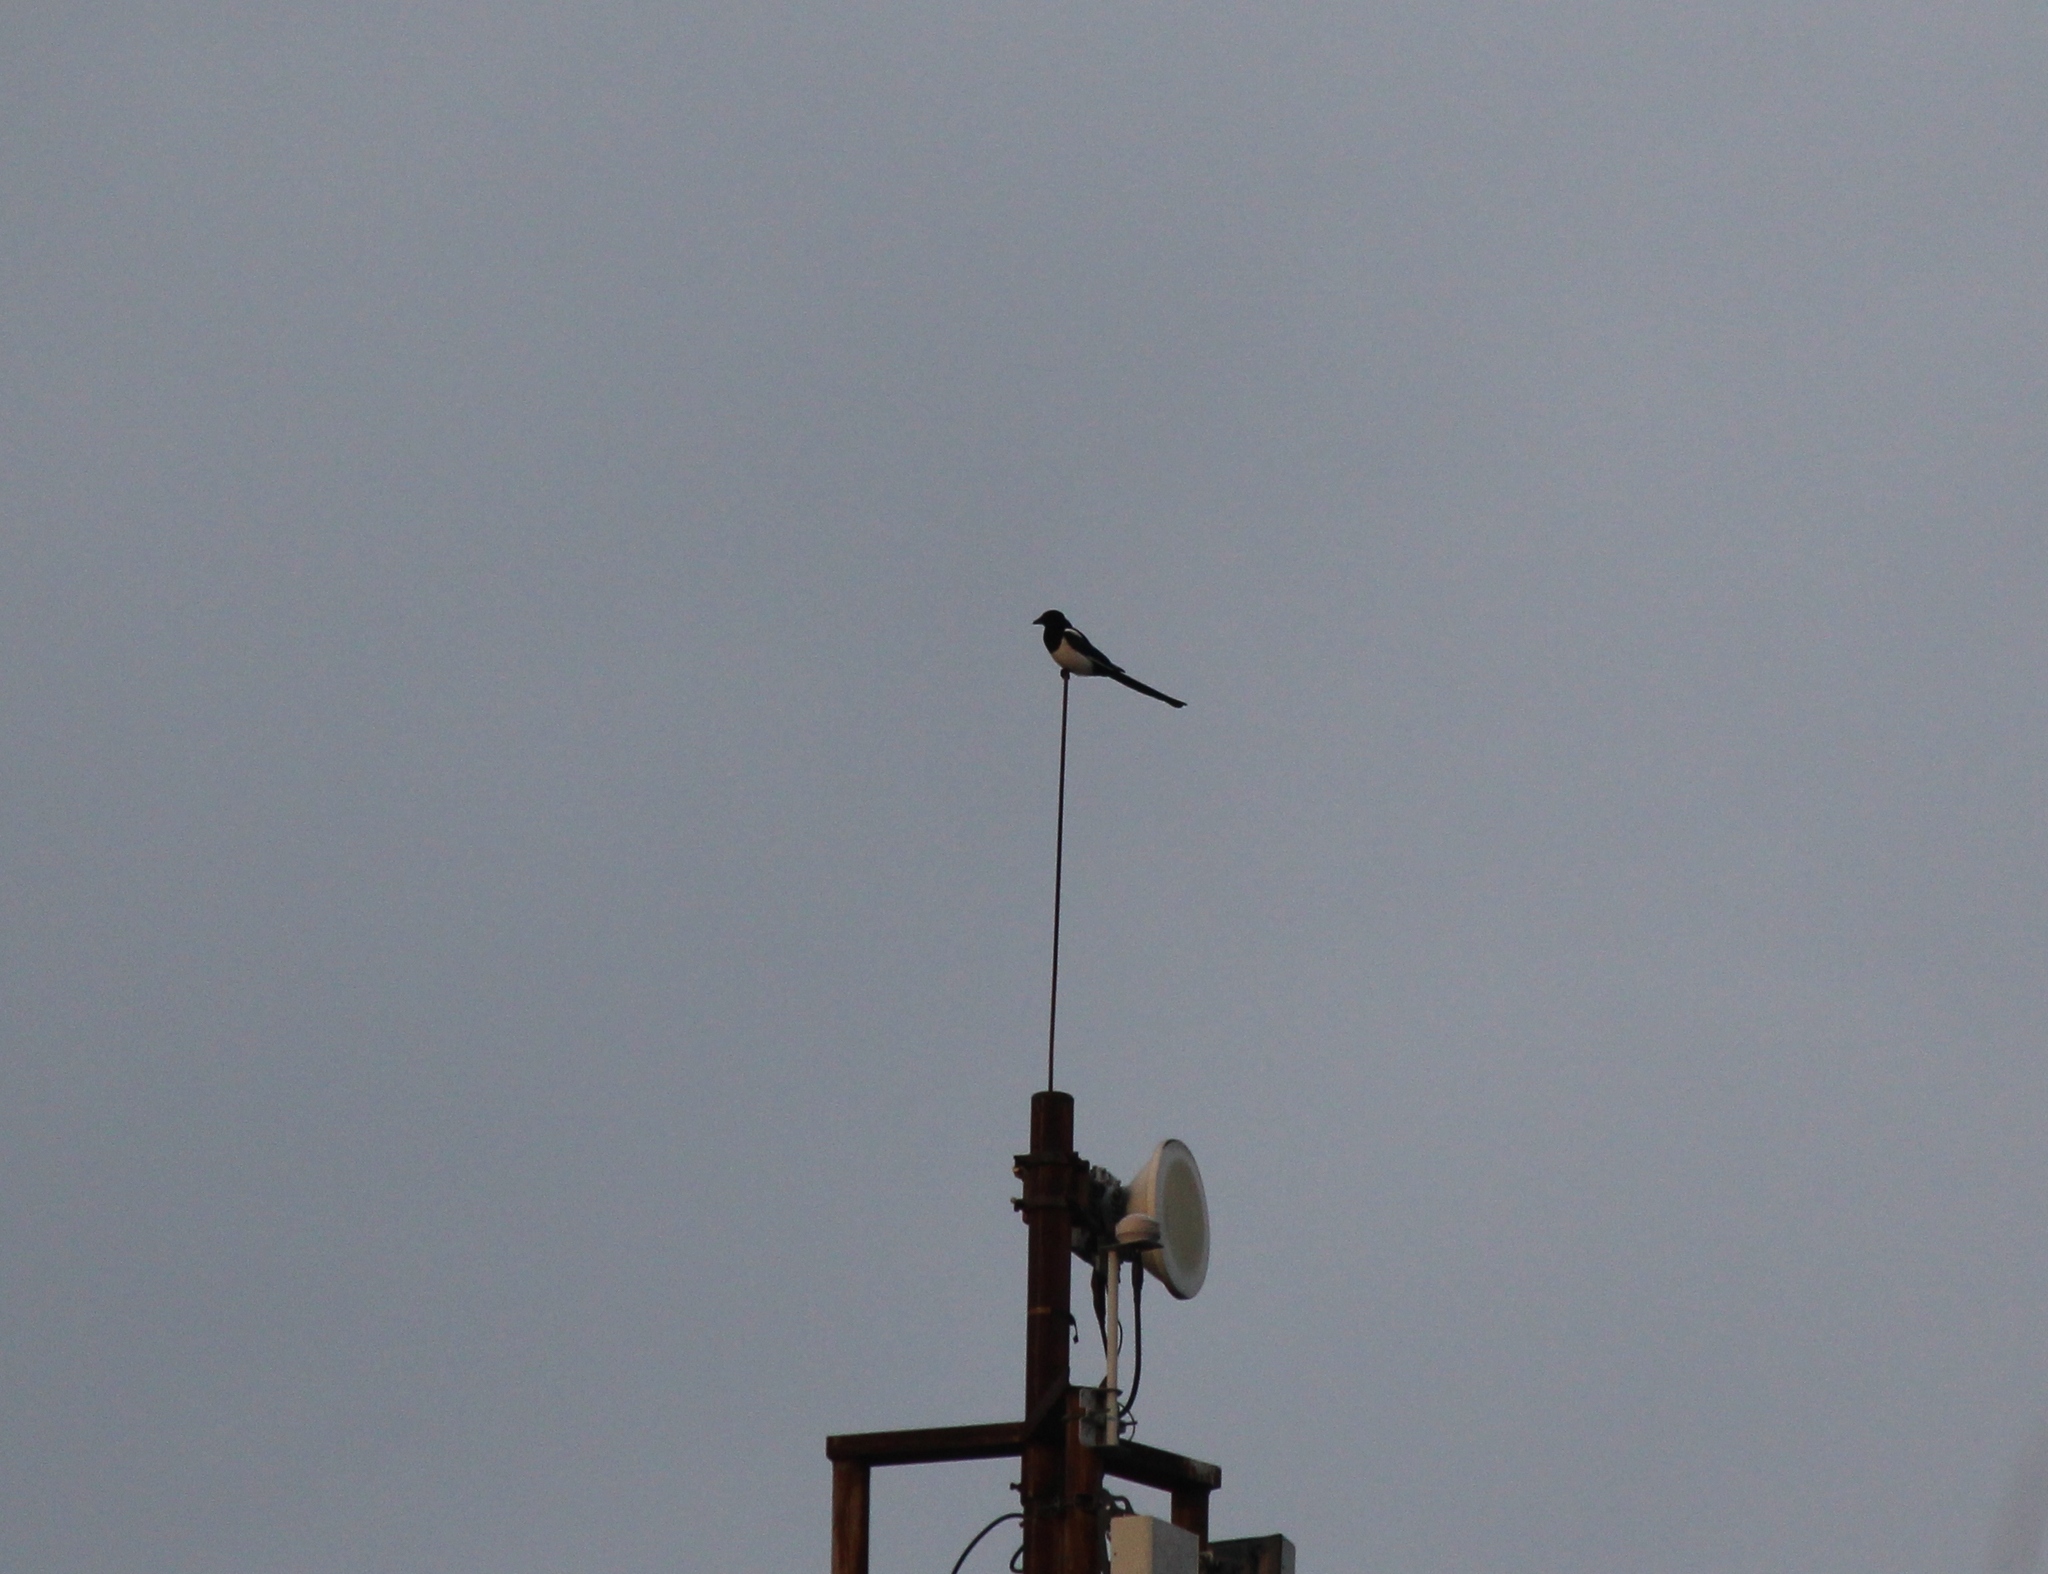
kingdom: Animalia
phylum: Chordata
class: Aves
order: Passeriformes
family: Corvidae
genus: Pica
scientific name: Pica pica
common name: Eurasian magpie
